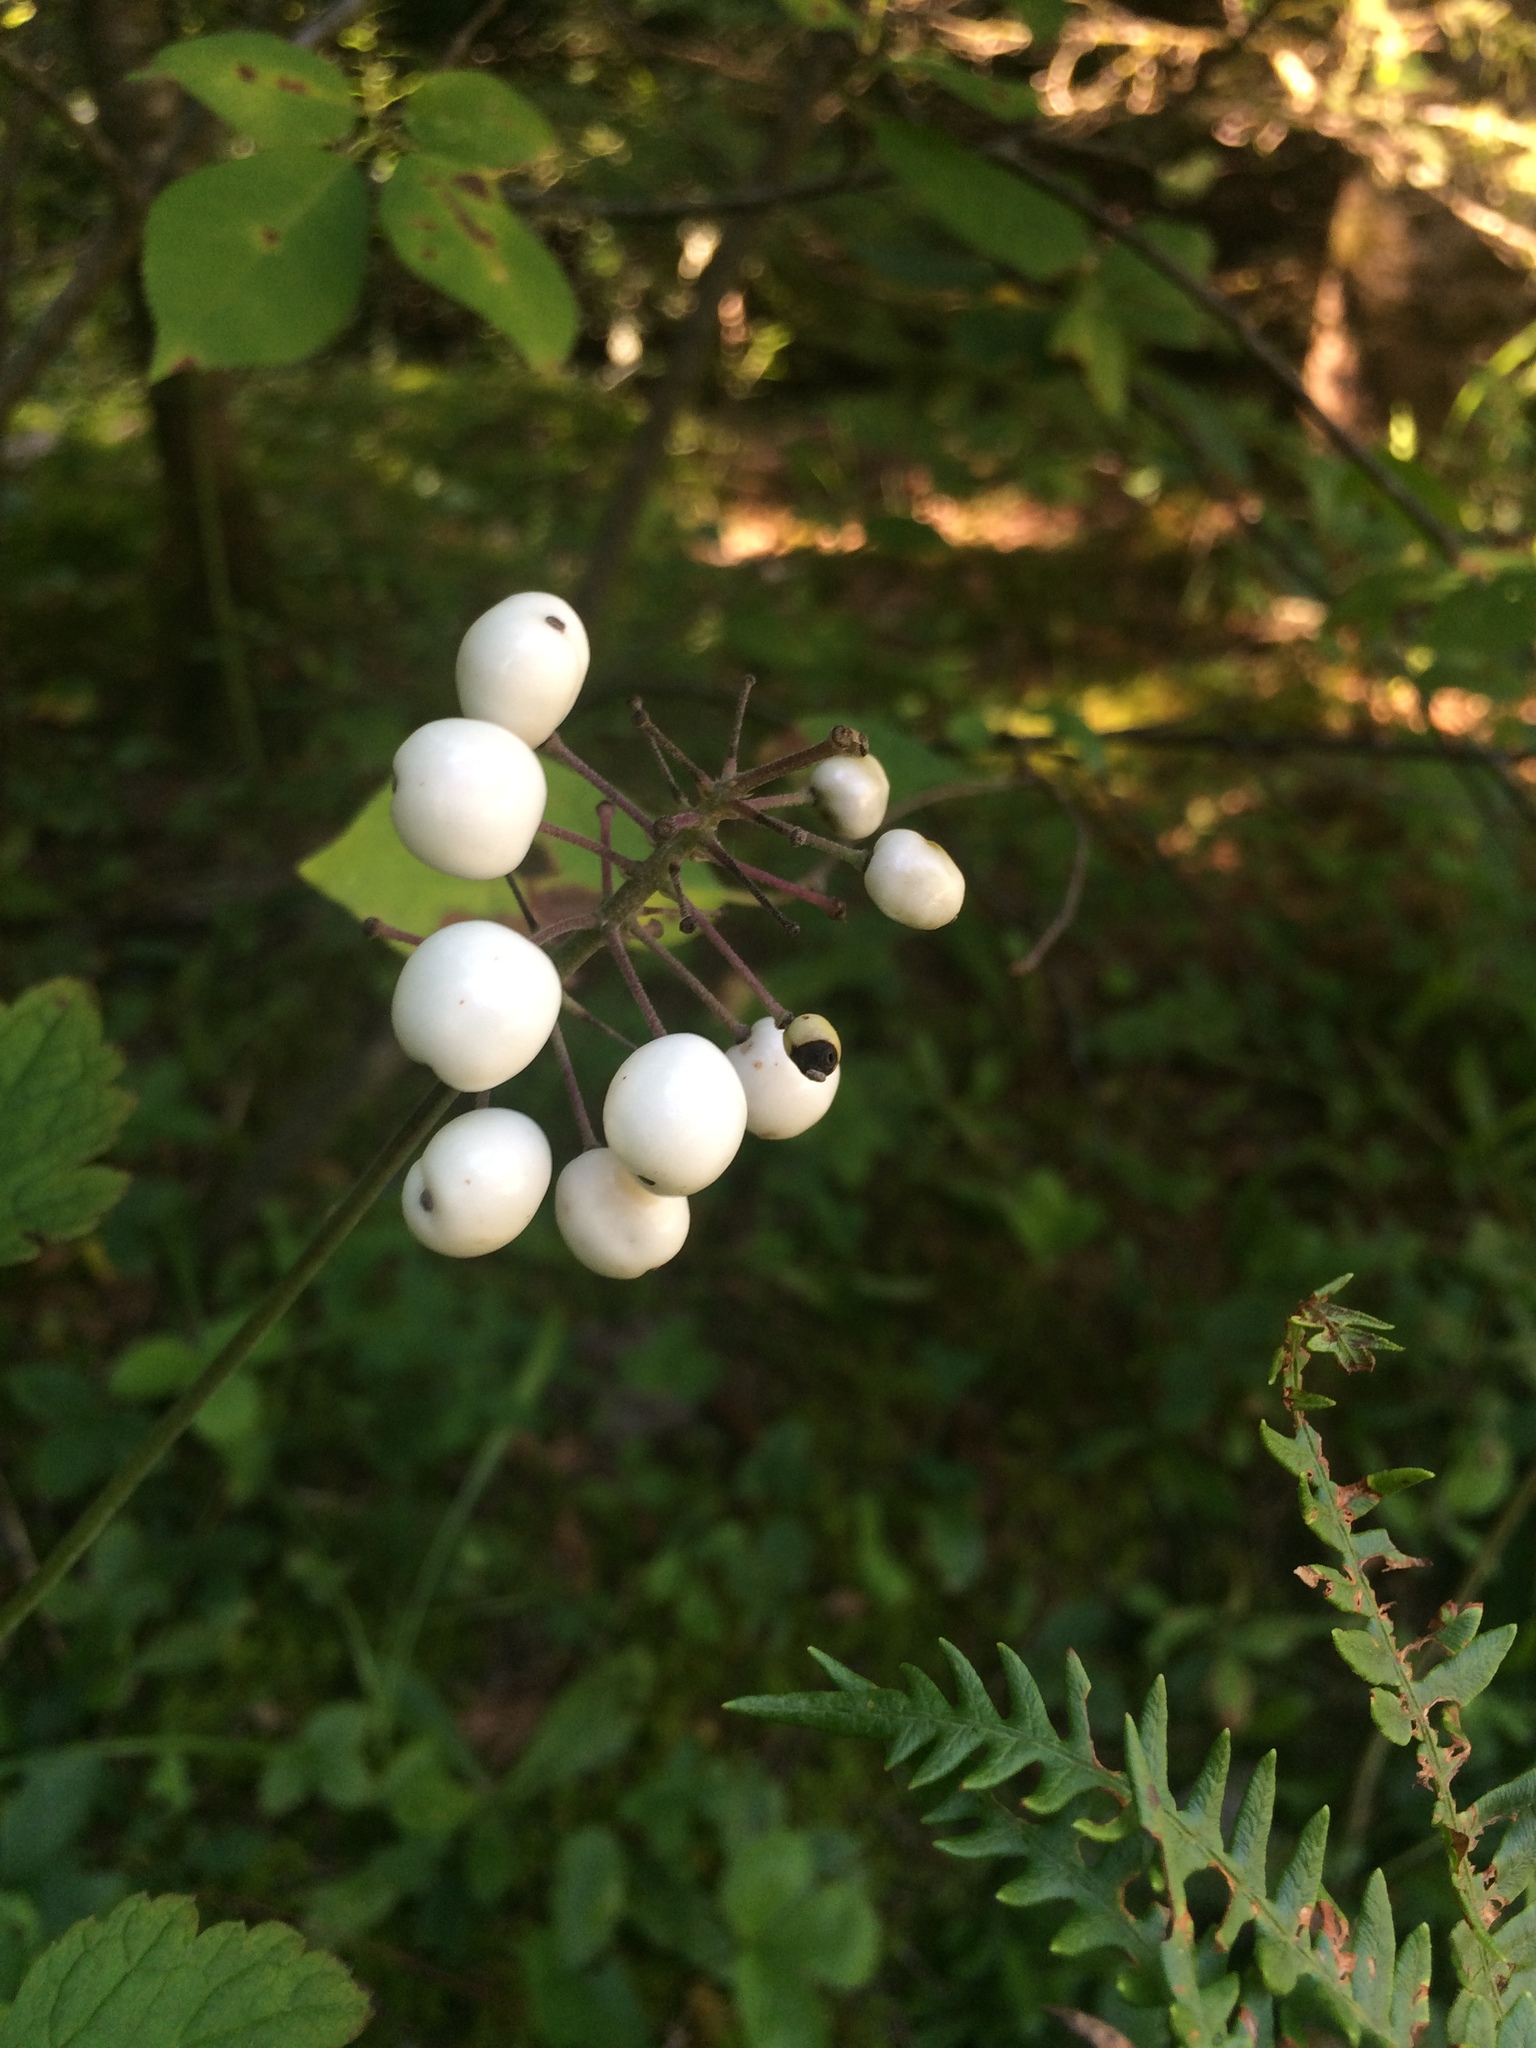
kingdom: Plantae
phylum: Tracheophyta
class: Magnoliopsida
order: Ranunculales
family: Ranunculaceae
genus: Actaea
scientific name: Actaea rubra
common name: Red baneberry
